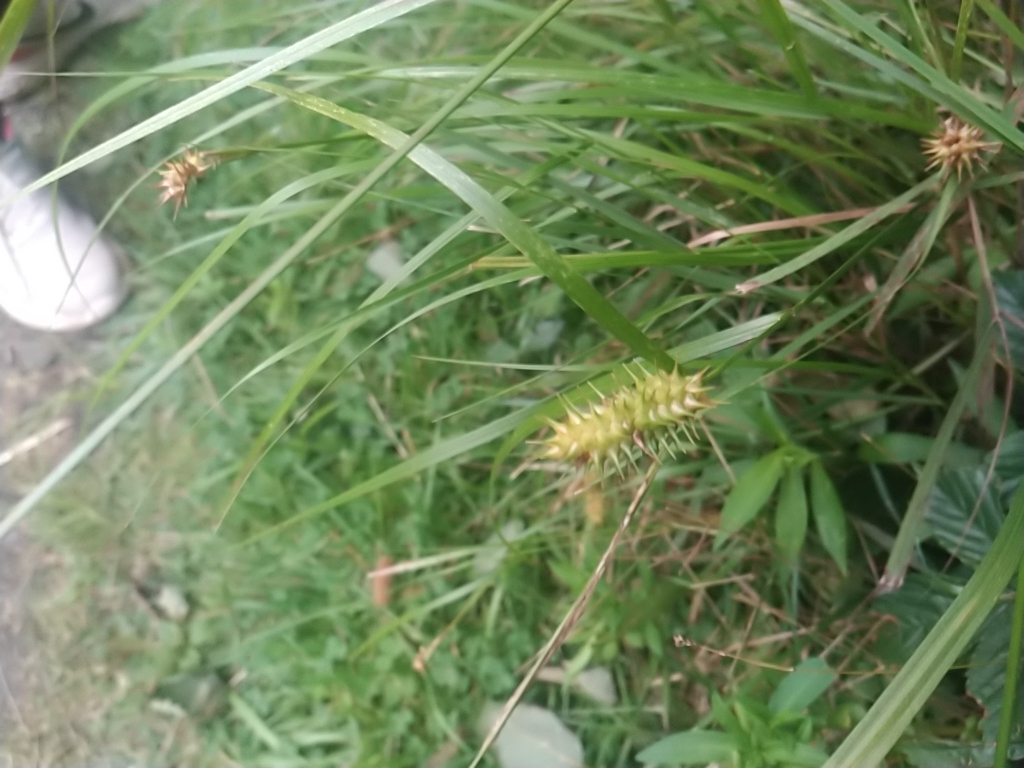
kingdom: Plantae
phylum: Tracheophyta
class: Liliopsida
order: Poales
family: Cyperaceae
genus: Carex
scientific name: Carex lurida
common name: Sallow sedge
